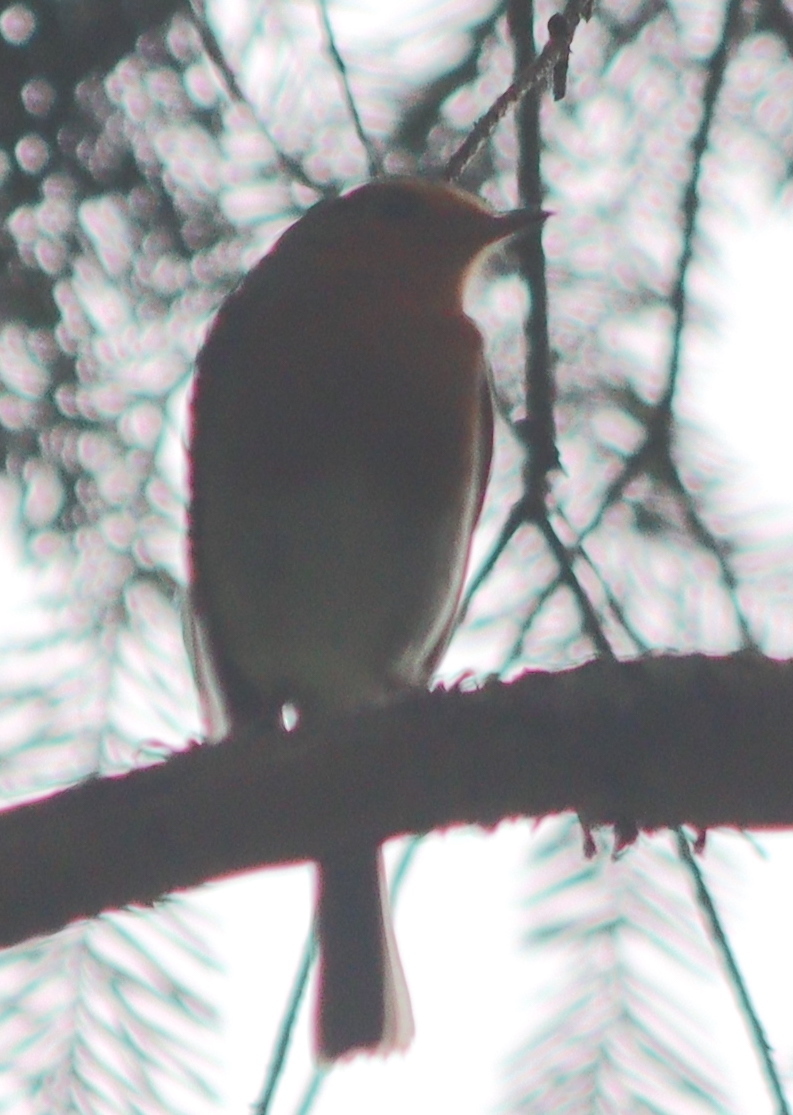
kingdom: Animalia
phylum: Chordata
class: Aves
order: Passeriformes
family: Muscicapidae
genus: Erithacus
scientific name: Erithacus rubecula
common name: European robin
